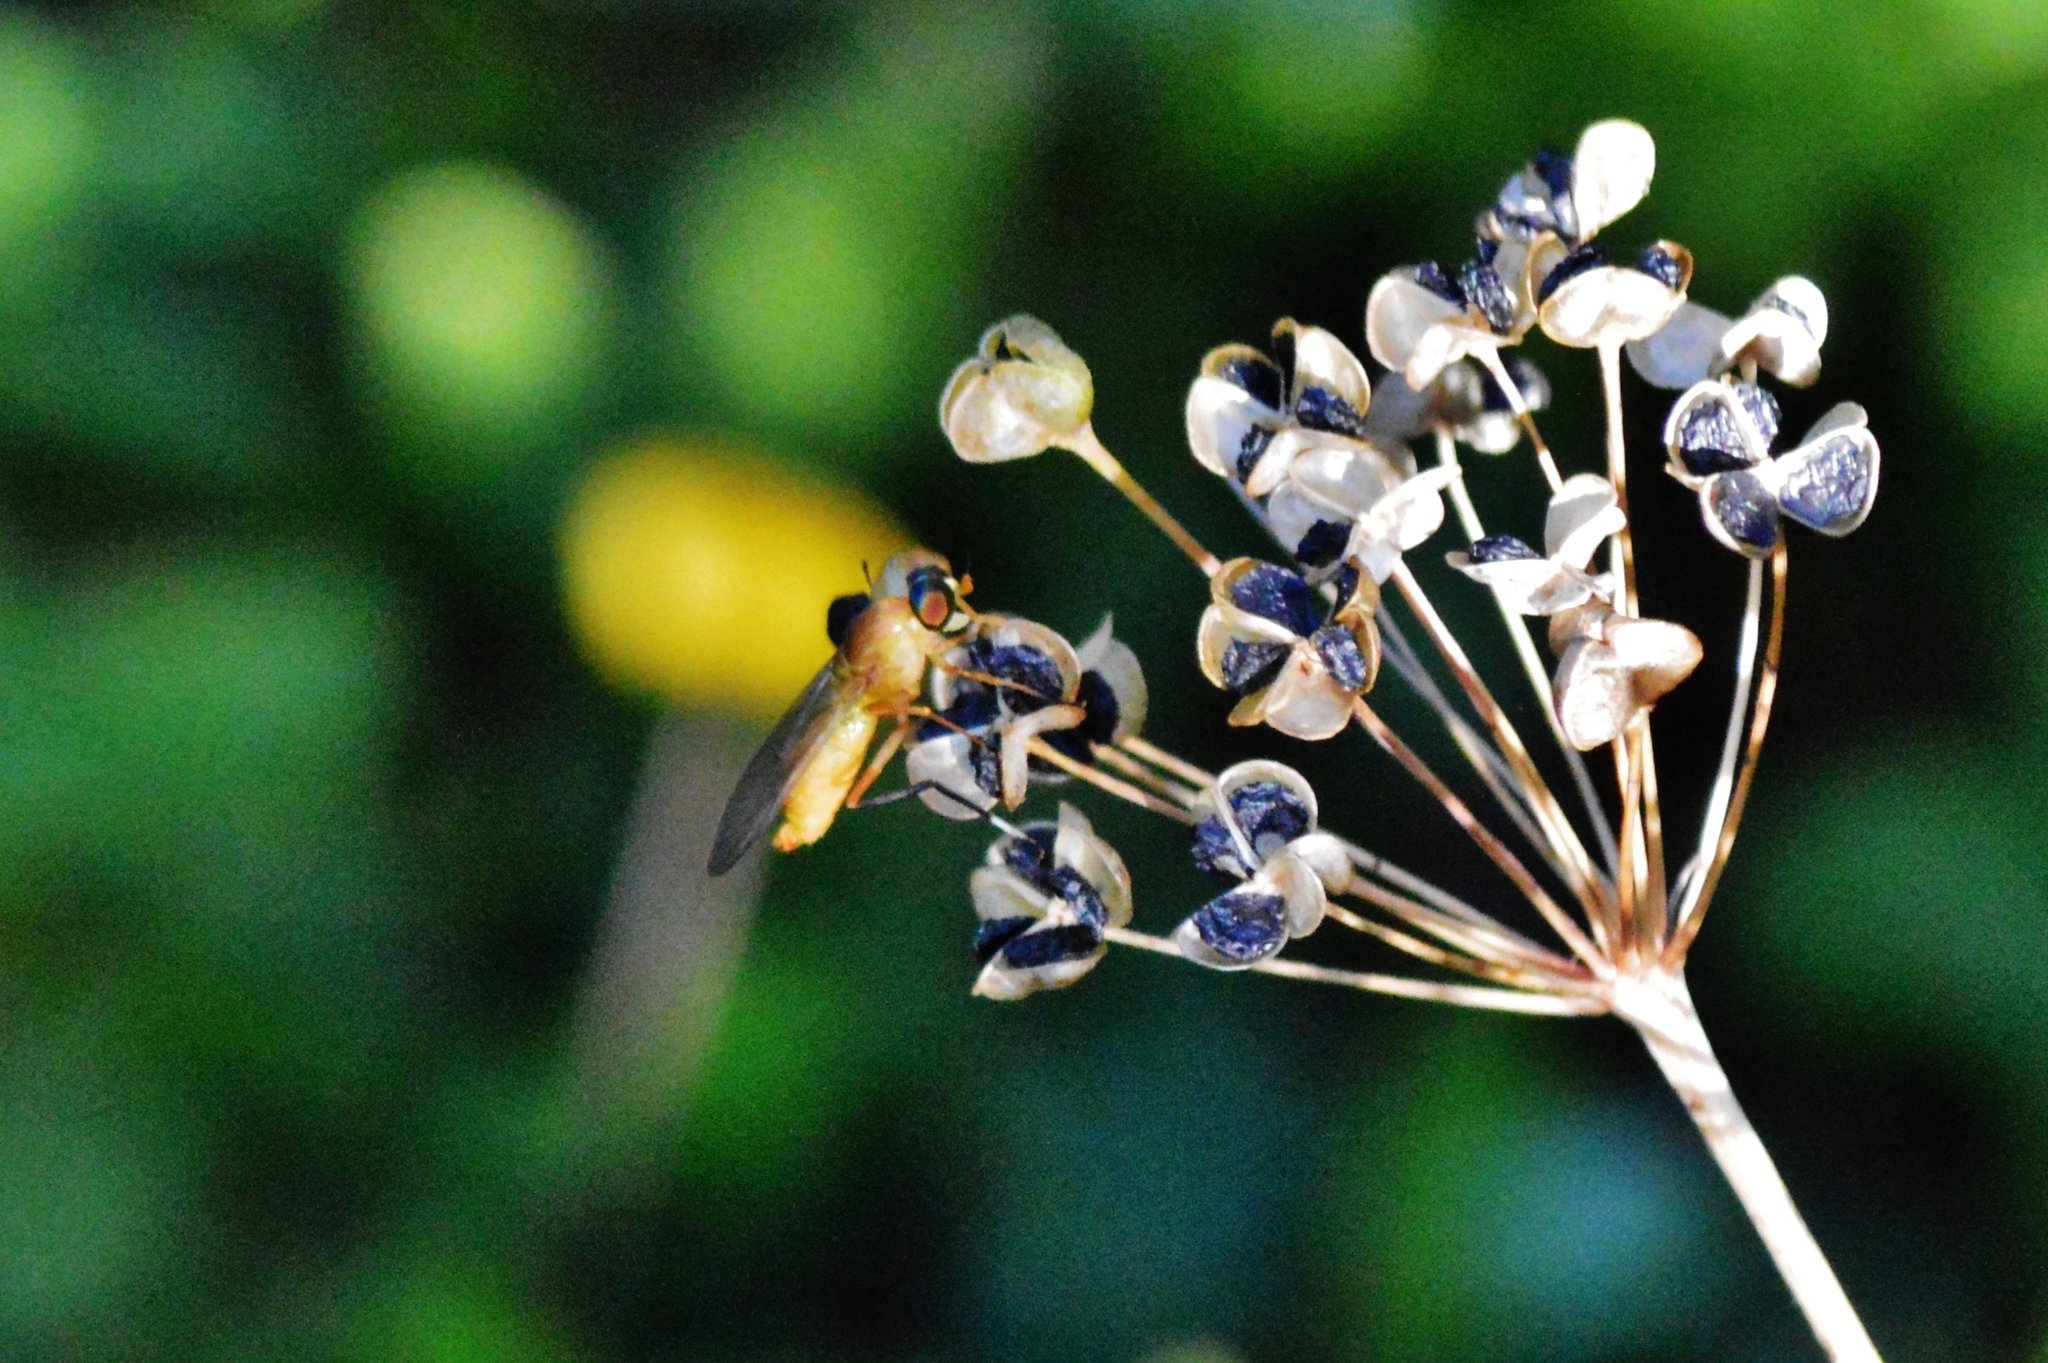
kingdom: Animalia
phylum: Arthropoda
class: Insecta
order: Diptera
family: Stratiomyidae
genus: Ptecticus
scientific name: Ptecticus testaceus
